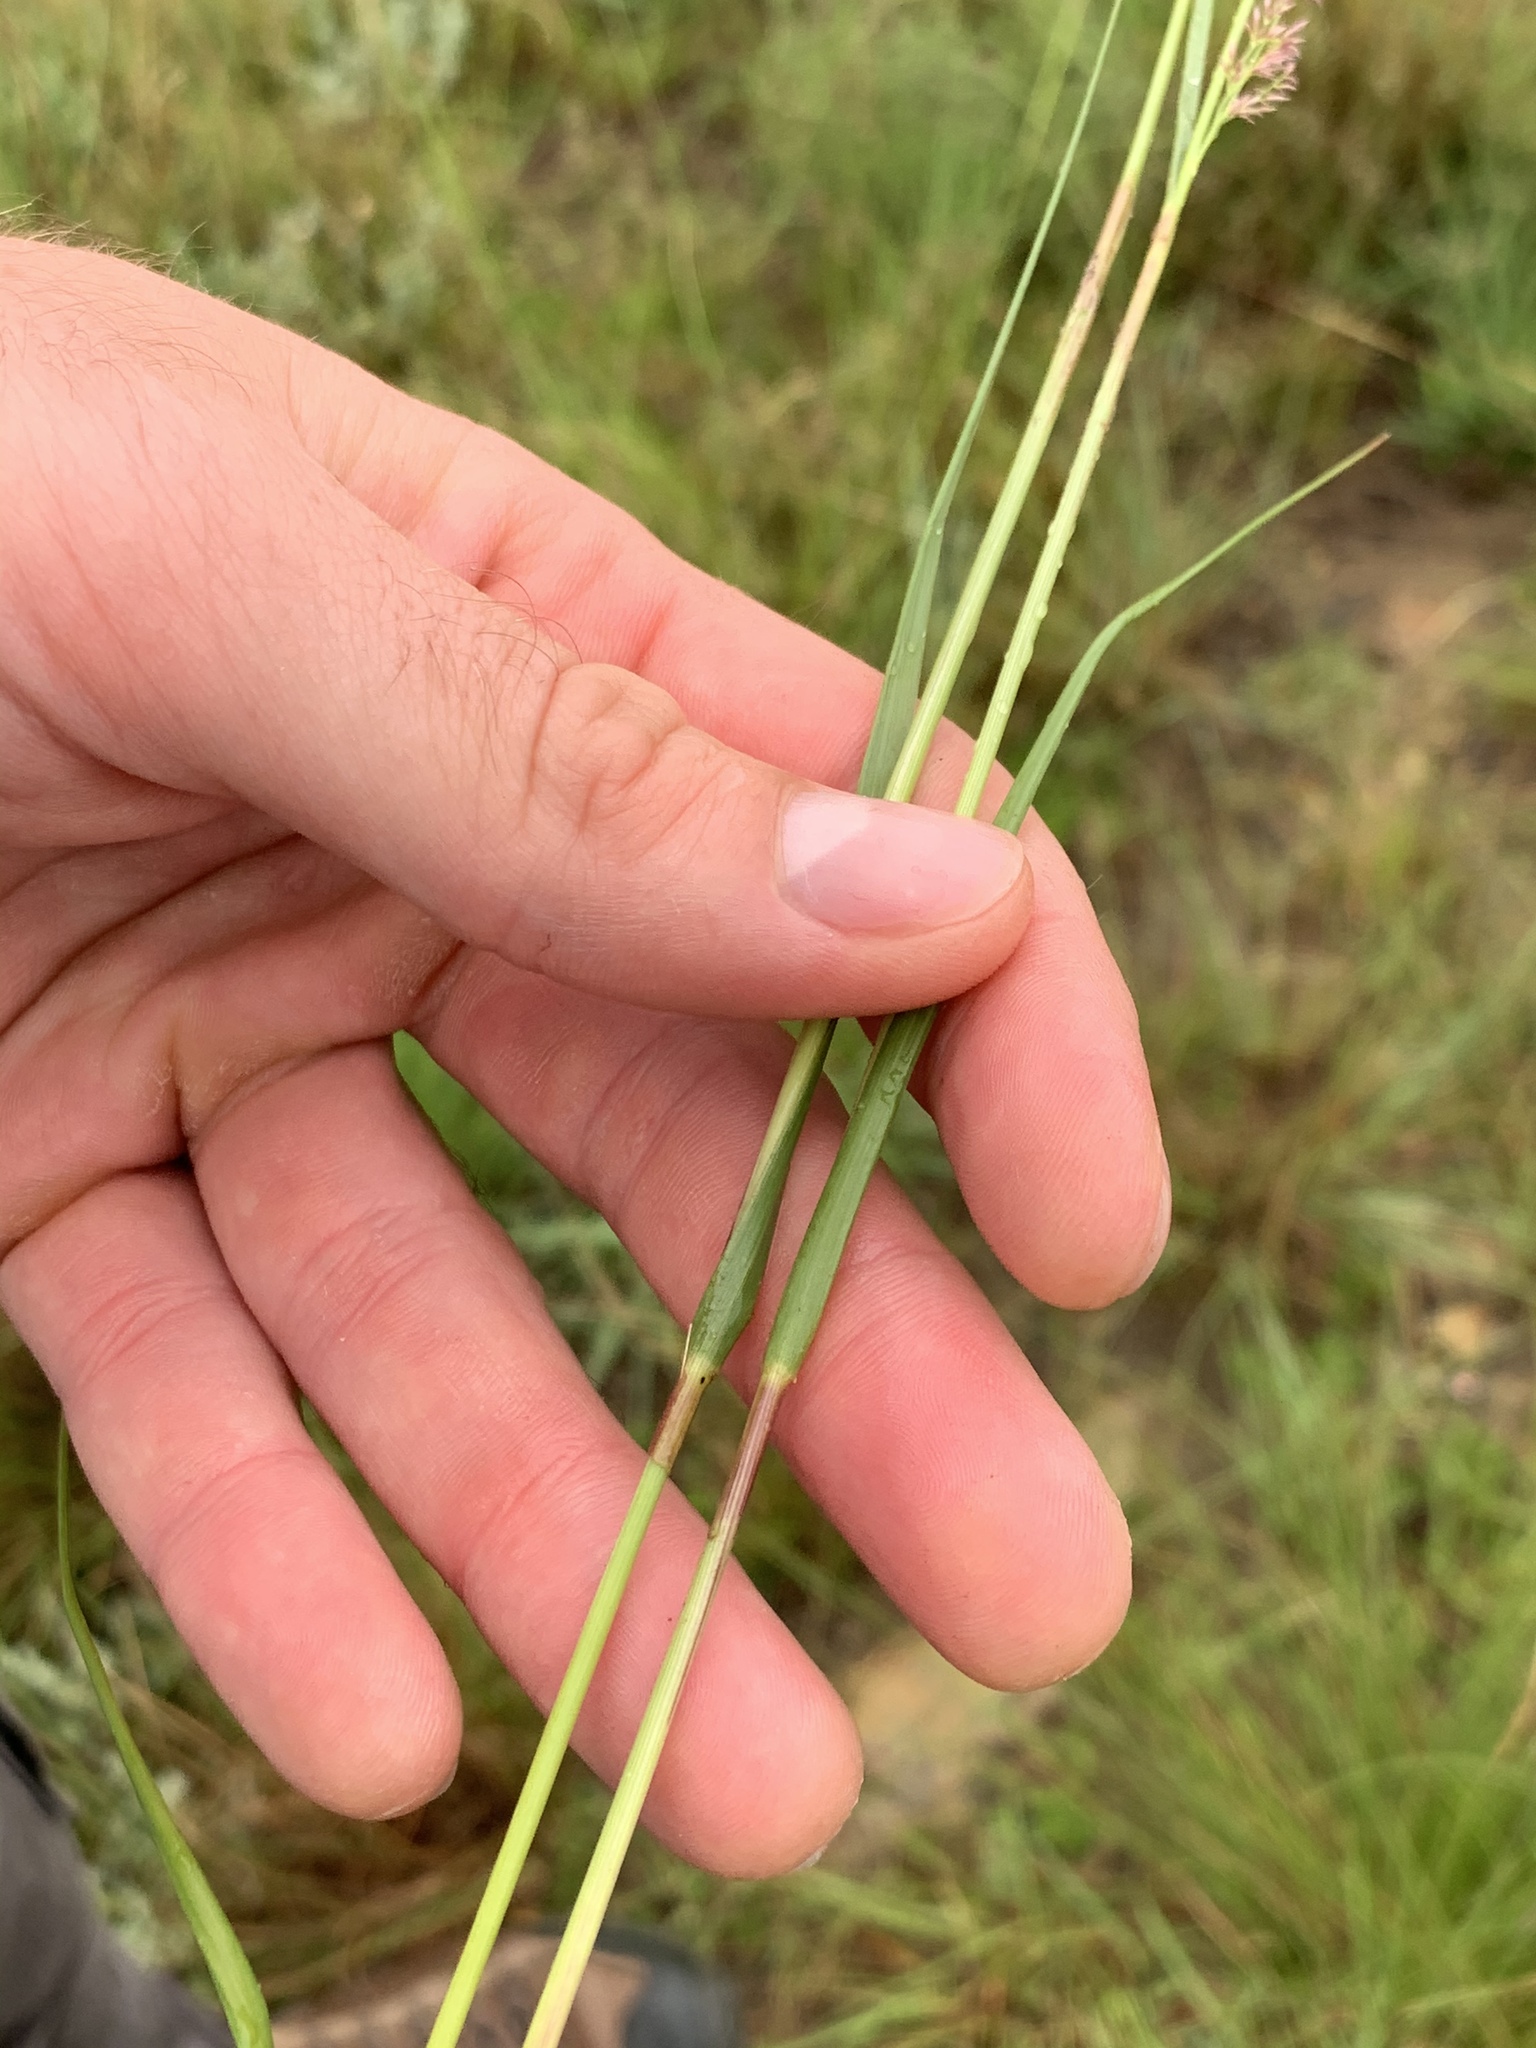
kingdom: Plantae
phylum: Tracheophyta
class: Liliopsida
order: Poales
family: Poaceae
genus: Eragrostis
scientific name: Eragrostis gummiflua
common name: Gum grass
